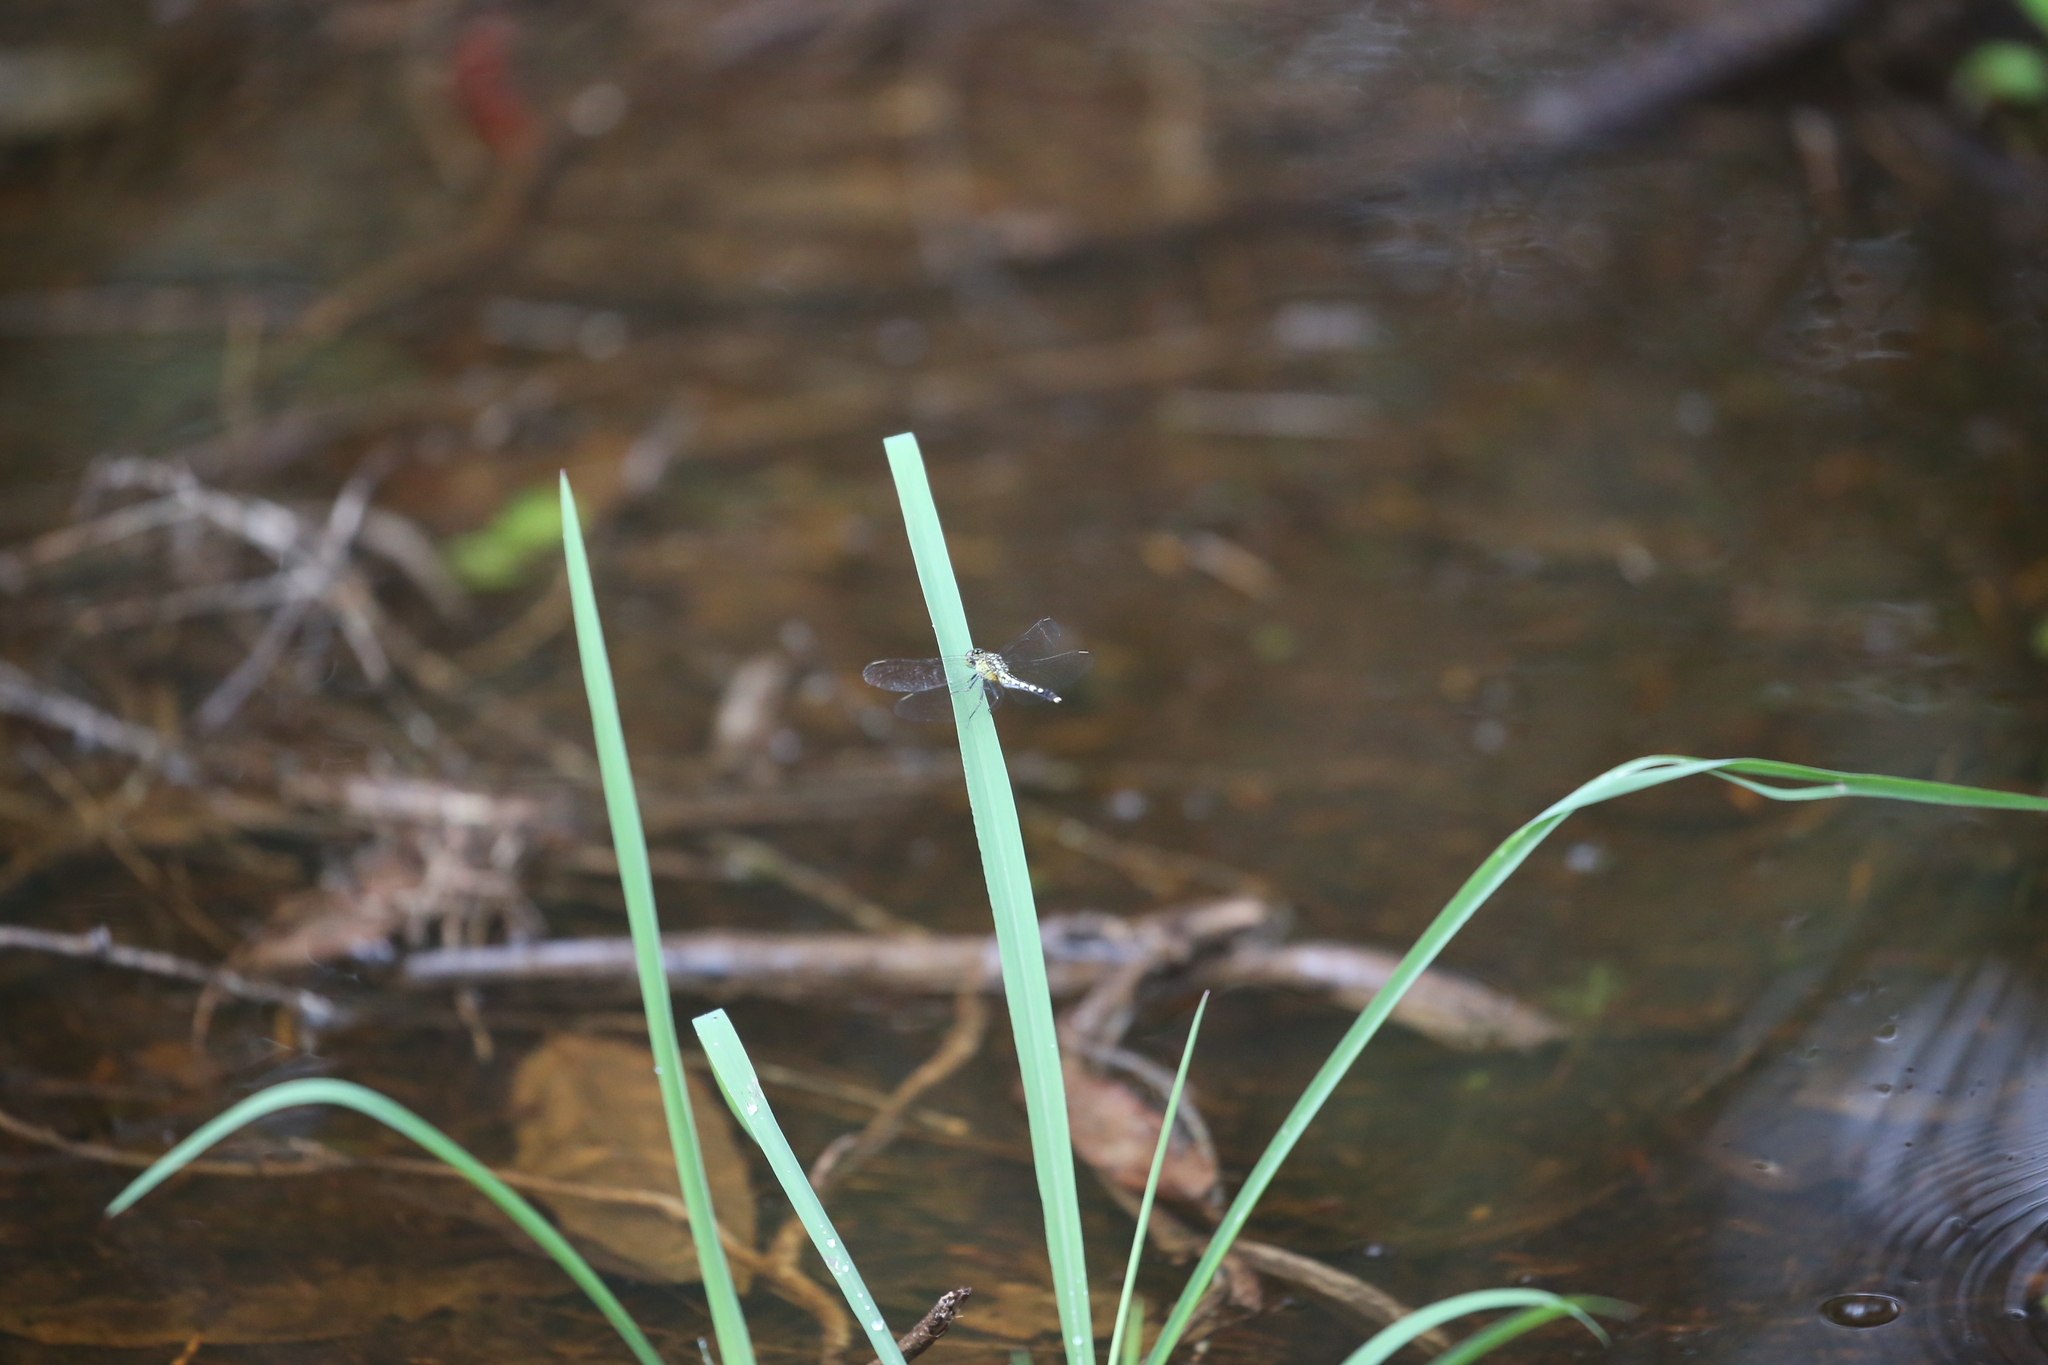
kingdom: Animalia
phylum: Arthropoda
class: Insecta
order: Odonata
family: Libellulidae
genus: Diplacodes
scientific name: Diplacodes trivialis
